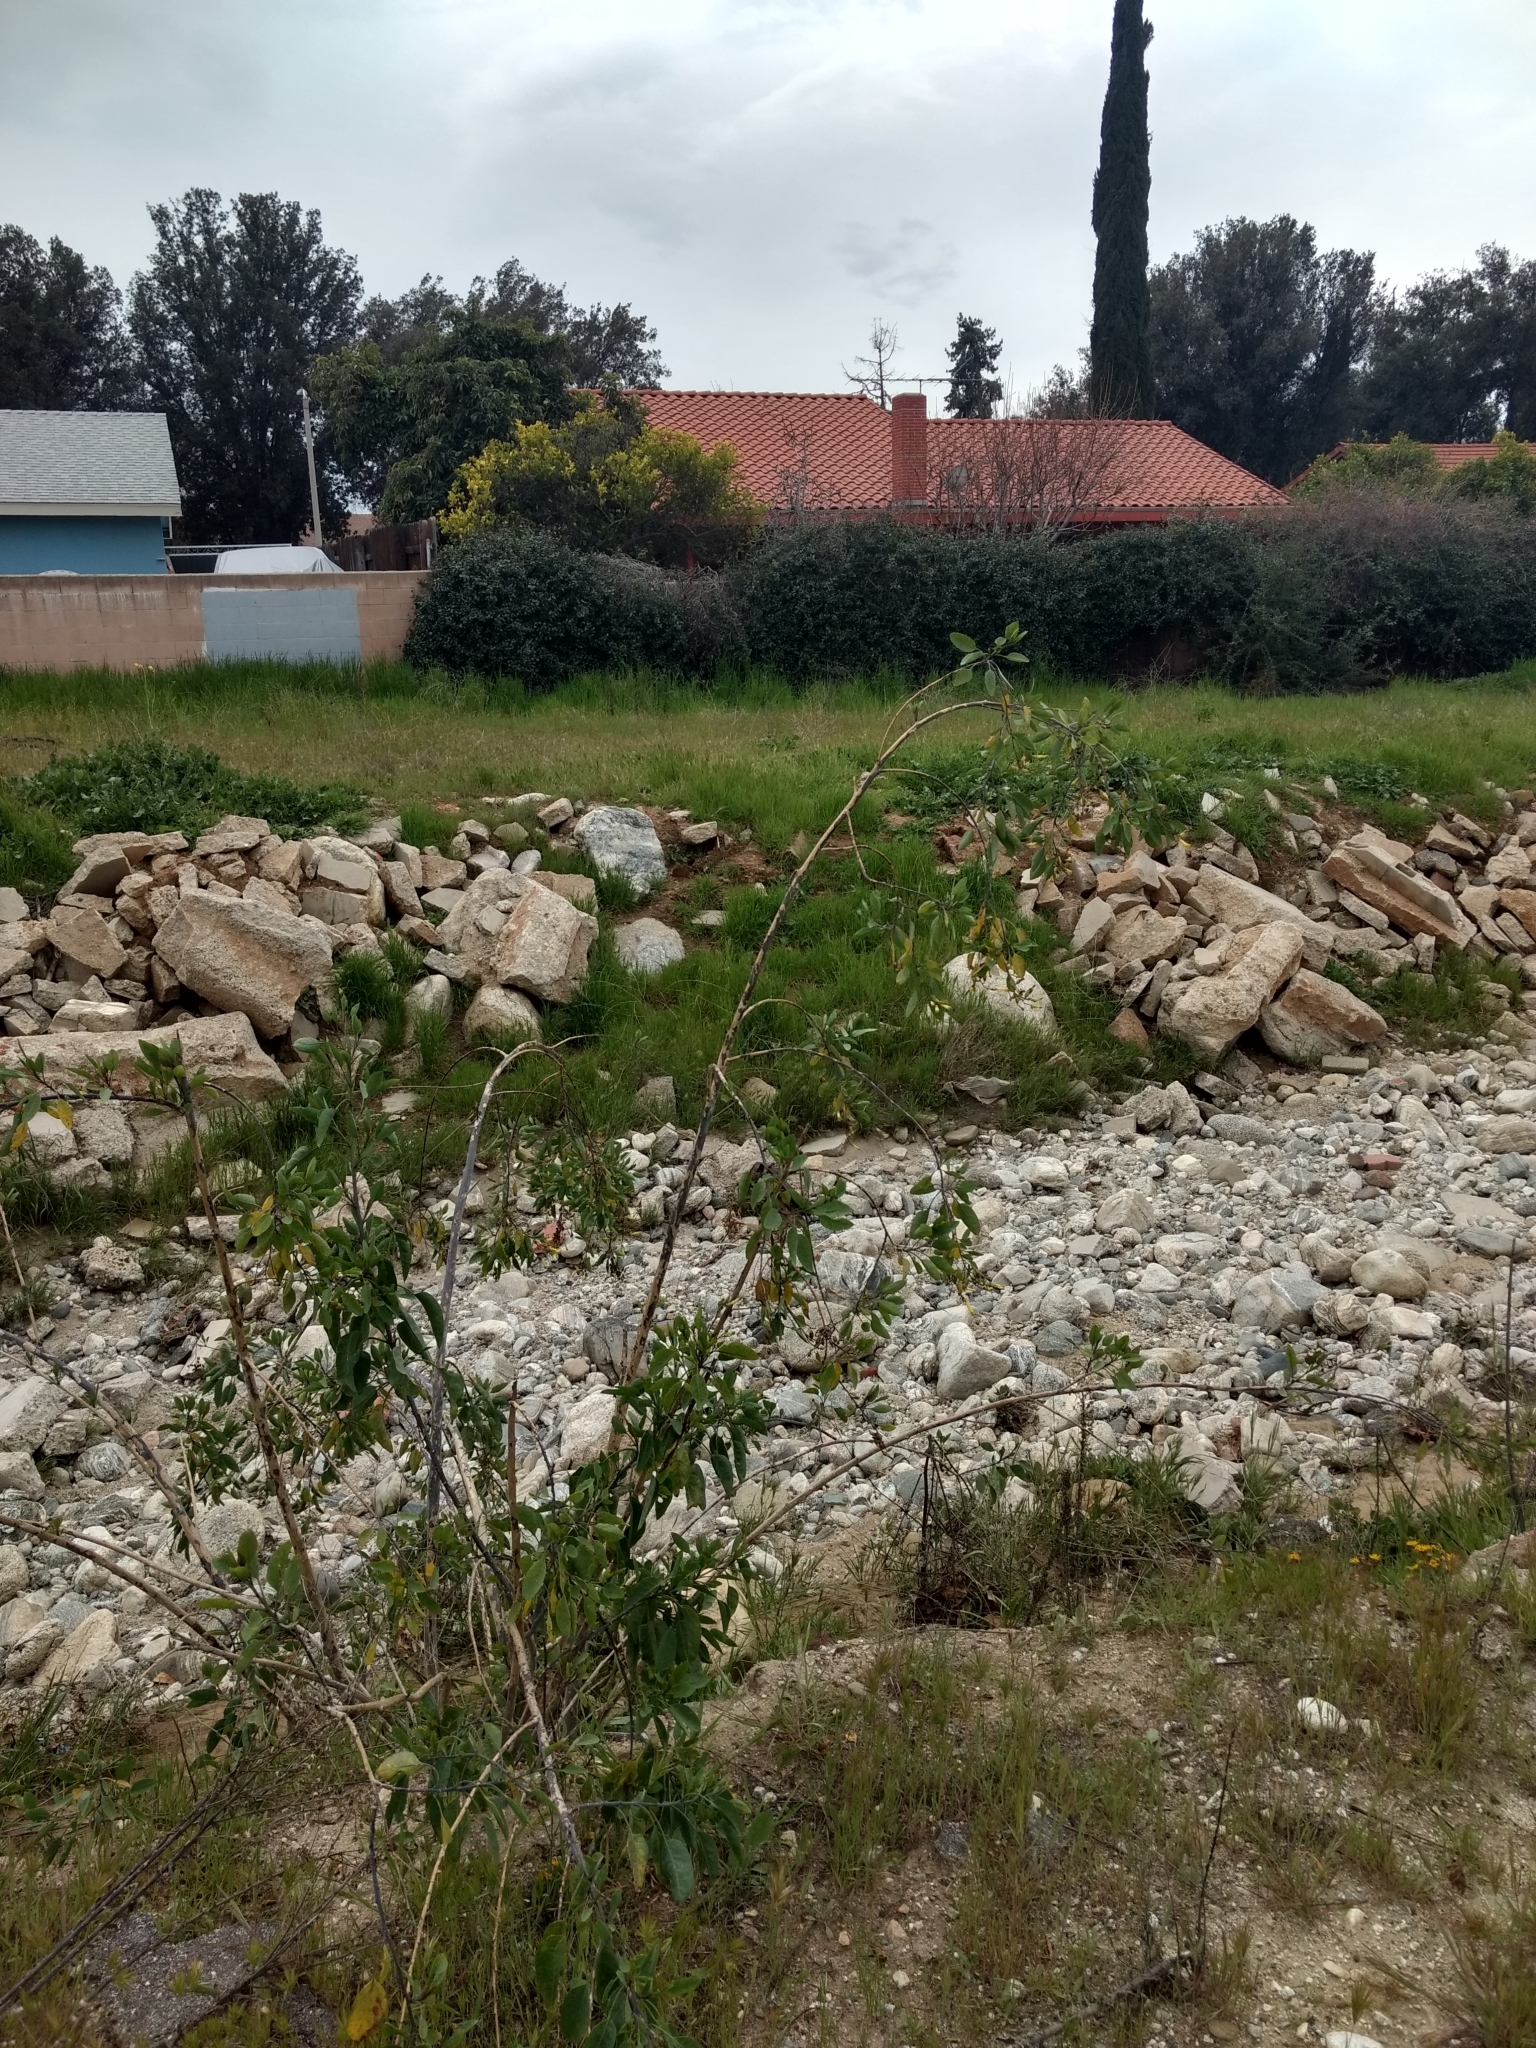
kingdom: Plantae
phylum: Tracheophyta
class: Magnoliopsida
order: Solanales
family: Solanaceae
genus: Nicotiana
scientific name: Nicotiana glauca
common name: Tree tobacco
